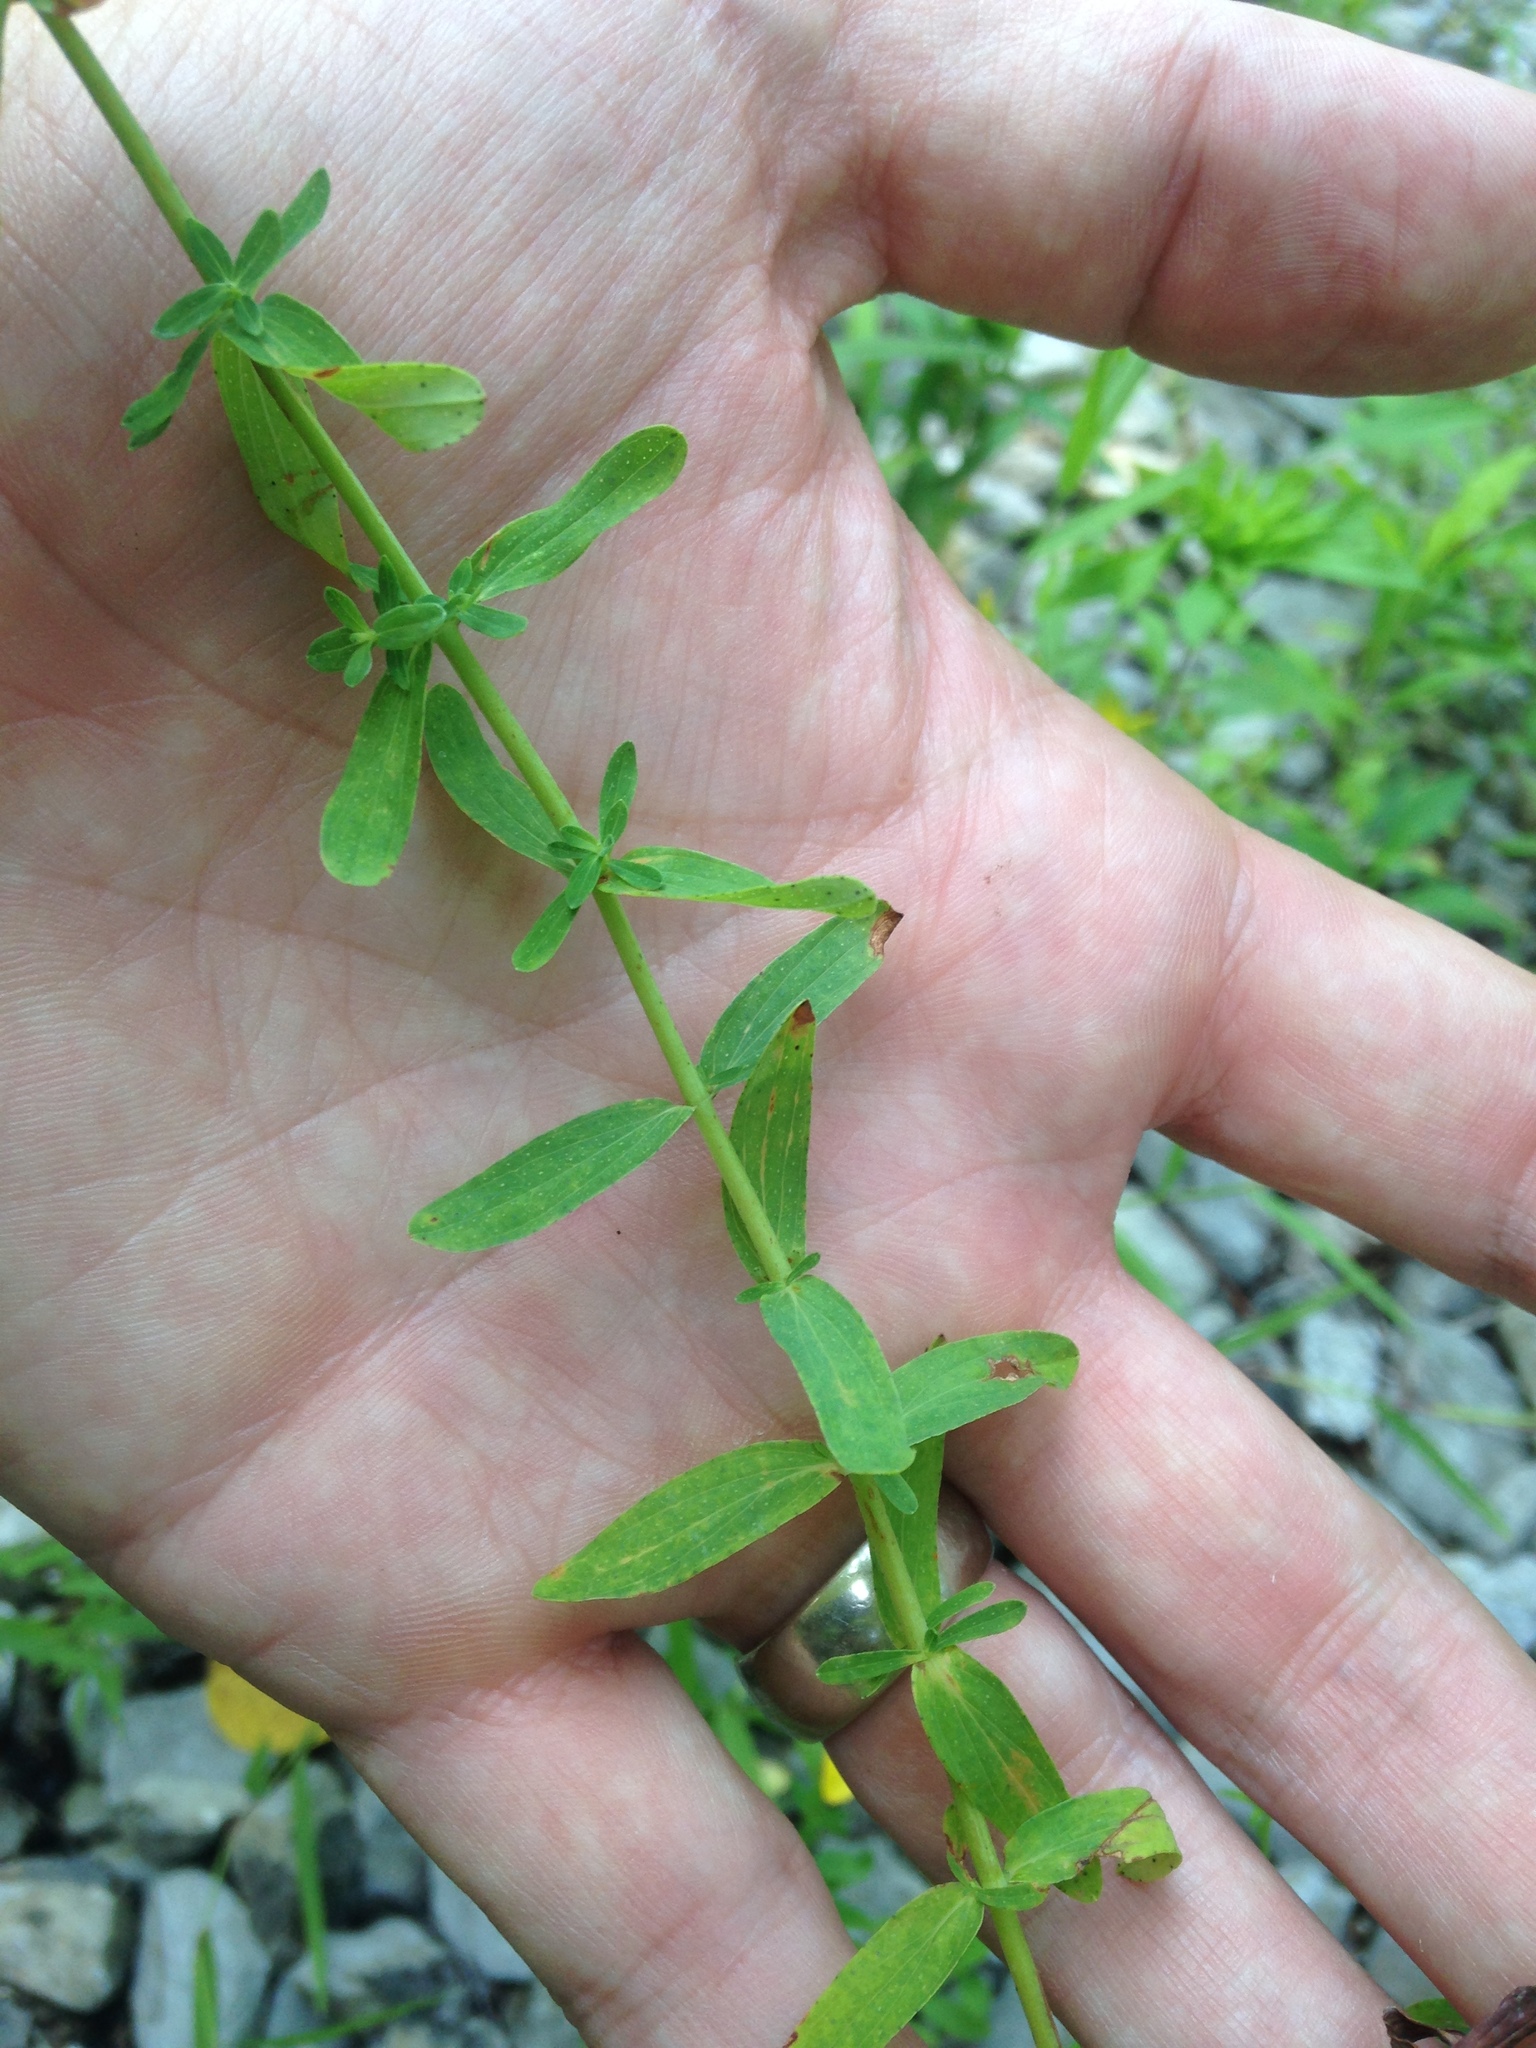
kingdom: Plantae
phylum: Tracheophyta
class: Magnoliopsida
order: Malpighiales
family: Hypericaceae
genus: Hypericum
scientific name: Hypericum perforatum
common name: Common st. johnswort
